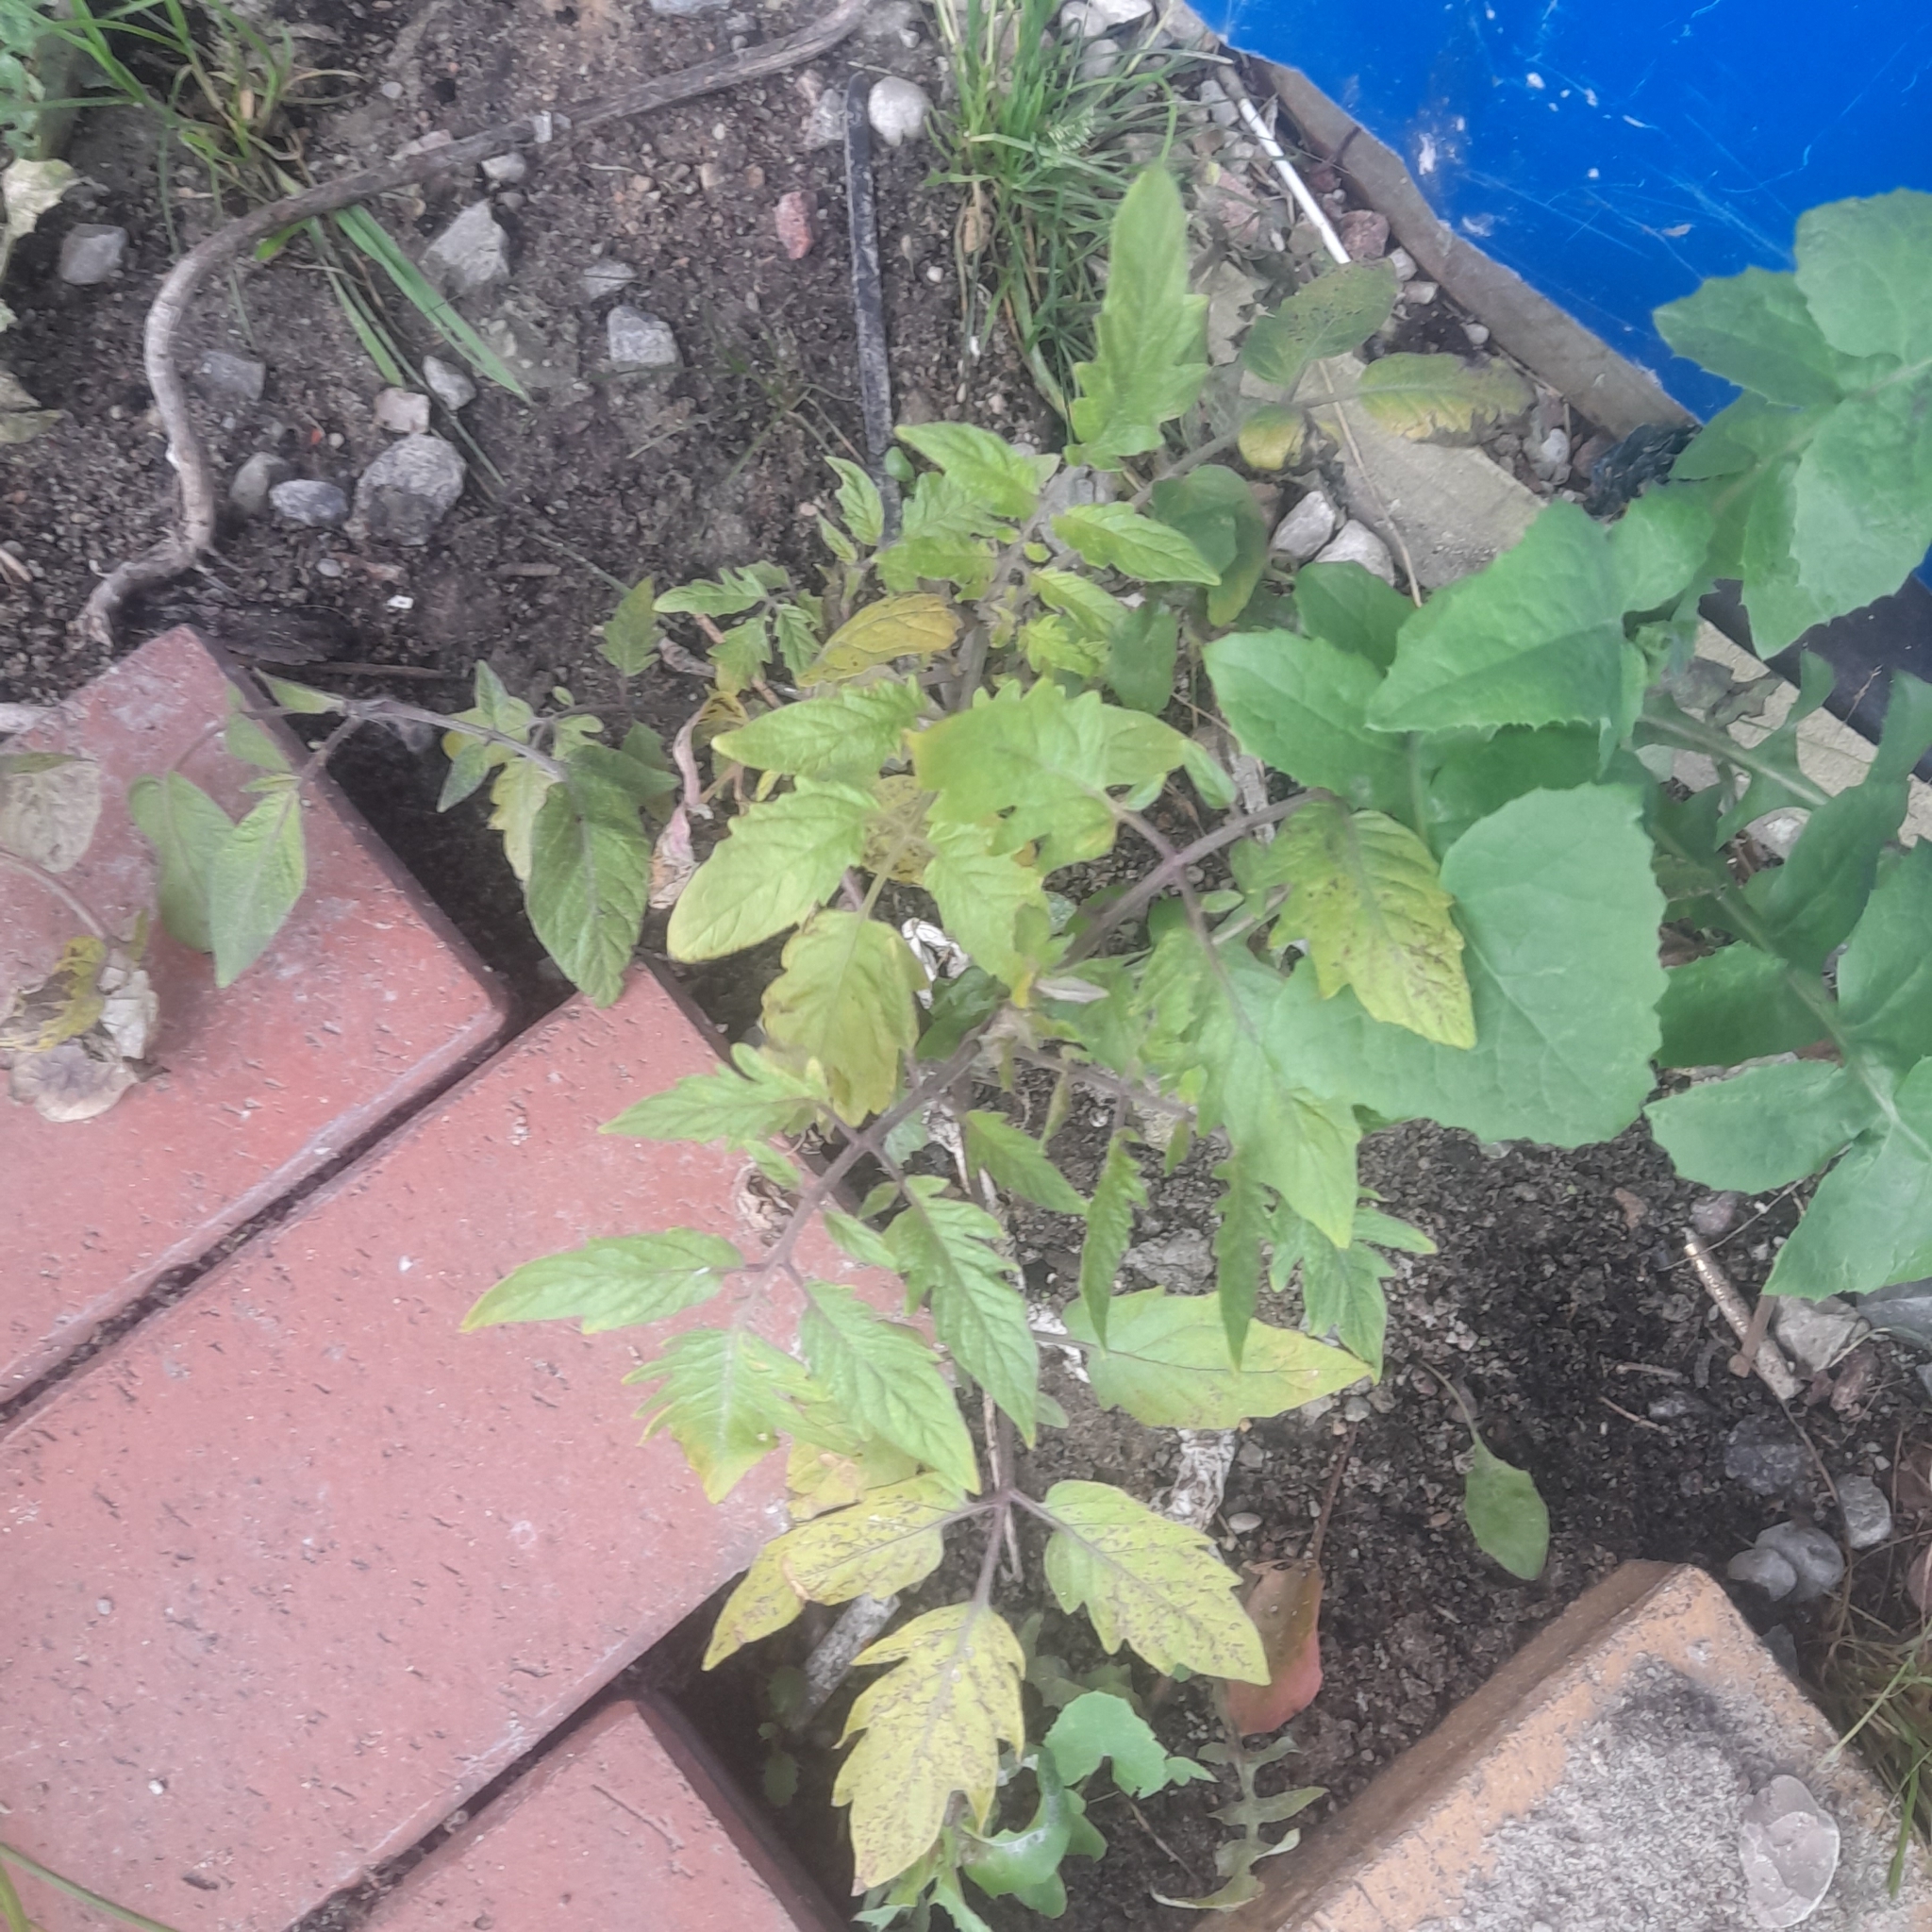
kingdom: Plantae
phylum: Tracheophyta
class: Magnoliopsida
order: Solanales
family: Solanaceae
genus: Solanum
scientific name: Solanum lycopersicum
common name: Garden tomato
